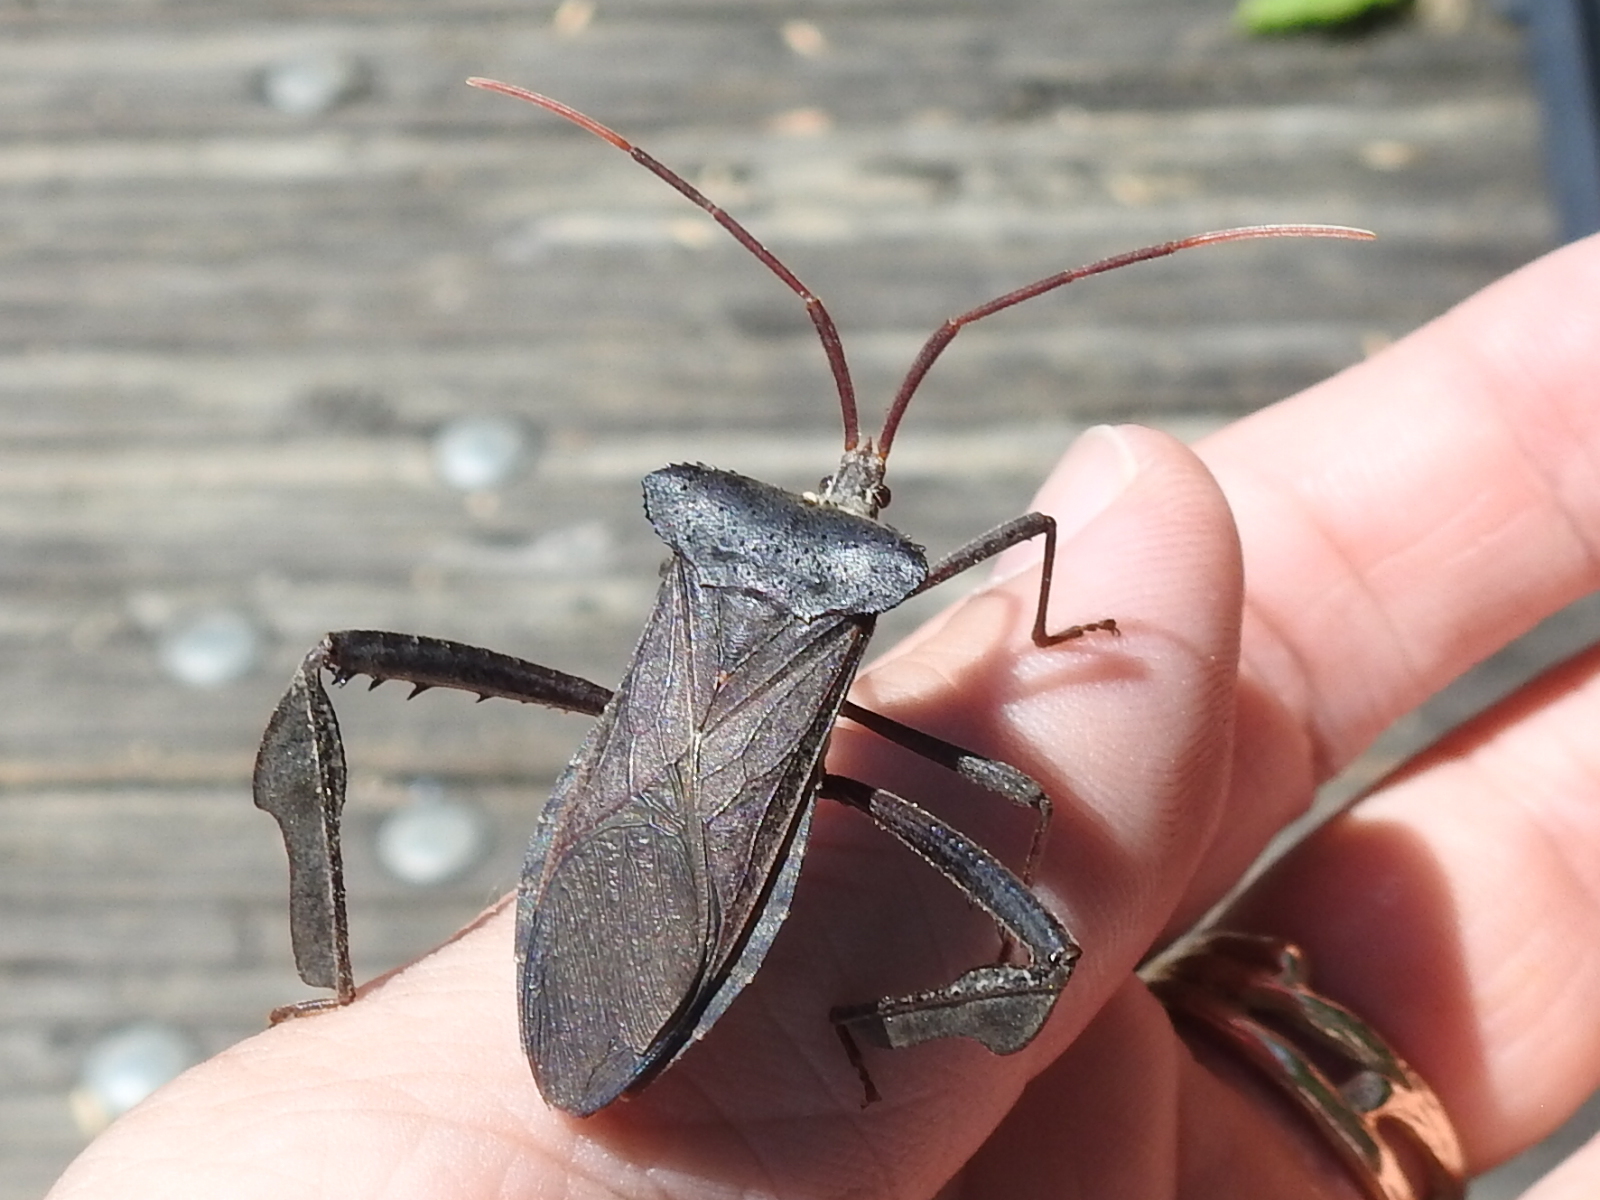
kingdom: Animalia
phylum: Arthropoda
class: Insecta
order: Hemiptera
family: Coreidae
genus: Acanthocephala
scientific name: Acanthocephala declivis
